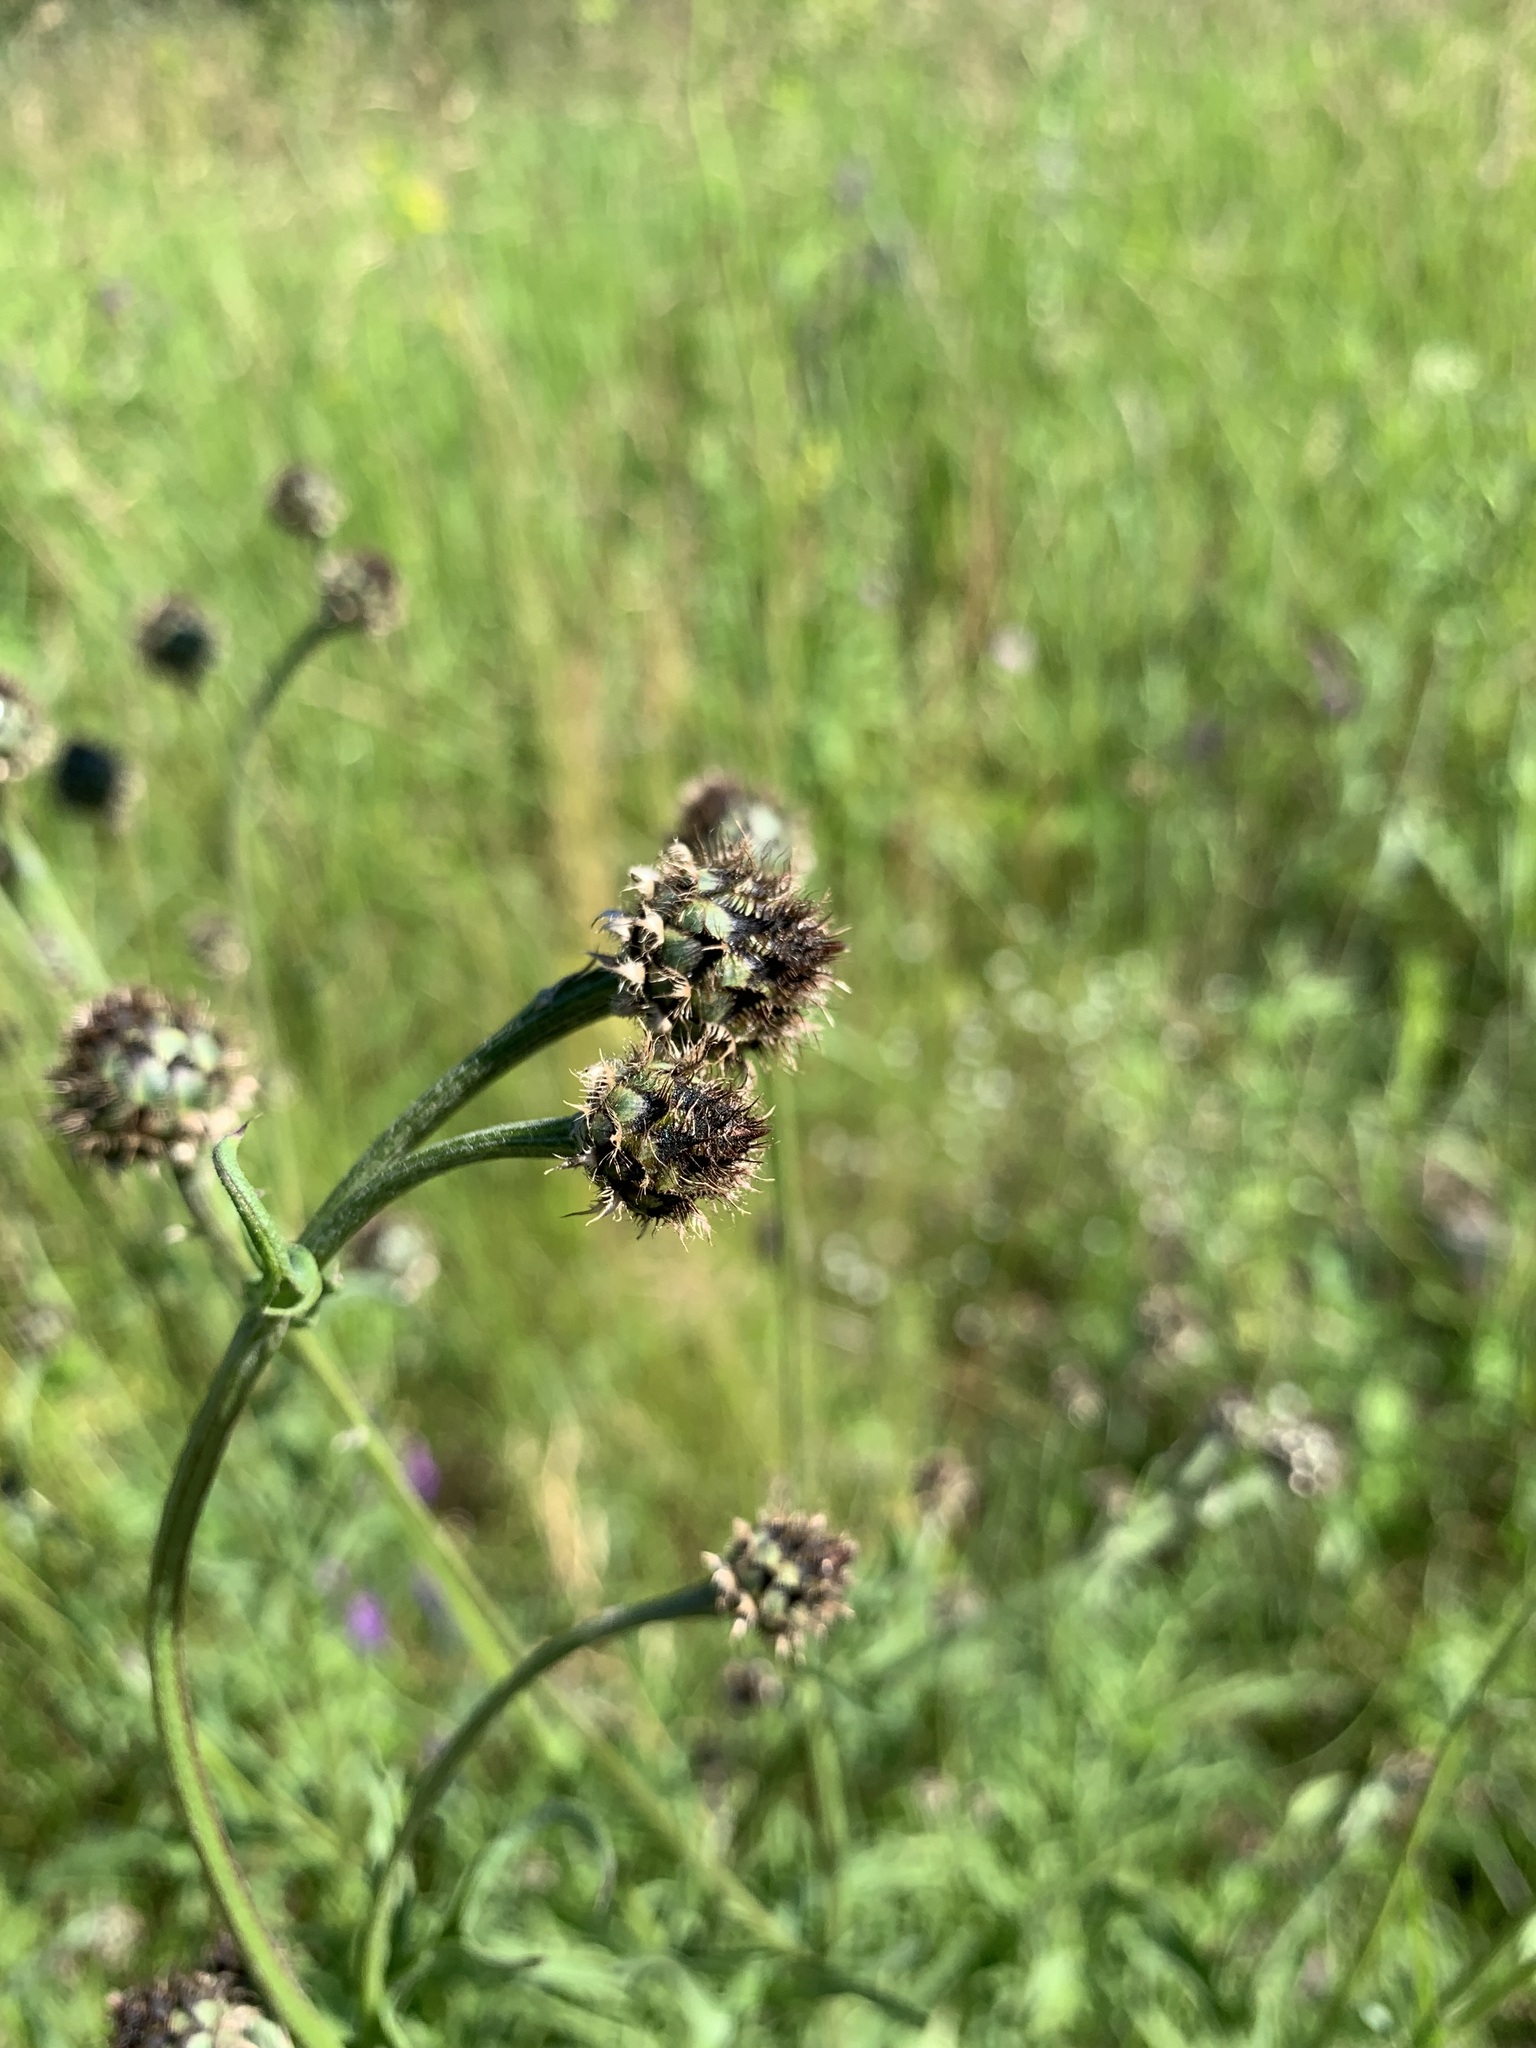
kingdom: Plantae
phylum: Tracheophyta
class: Magnoliopsida
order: Asterales
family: Asteraceae
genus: Centaurea
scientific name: Centaurea scabiosa
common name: Greater knapweed
